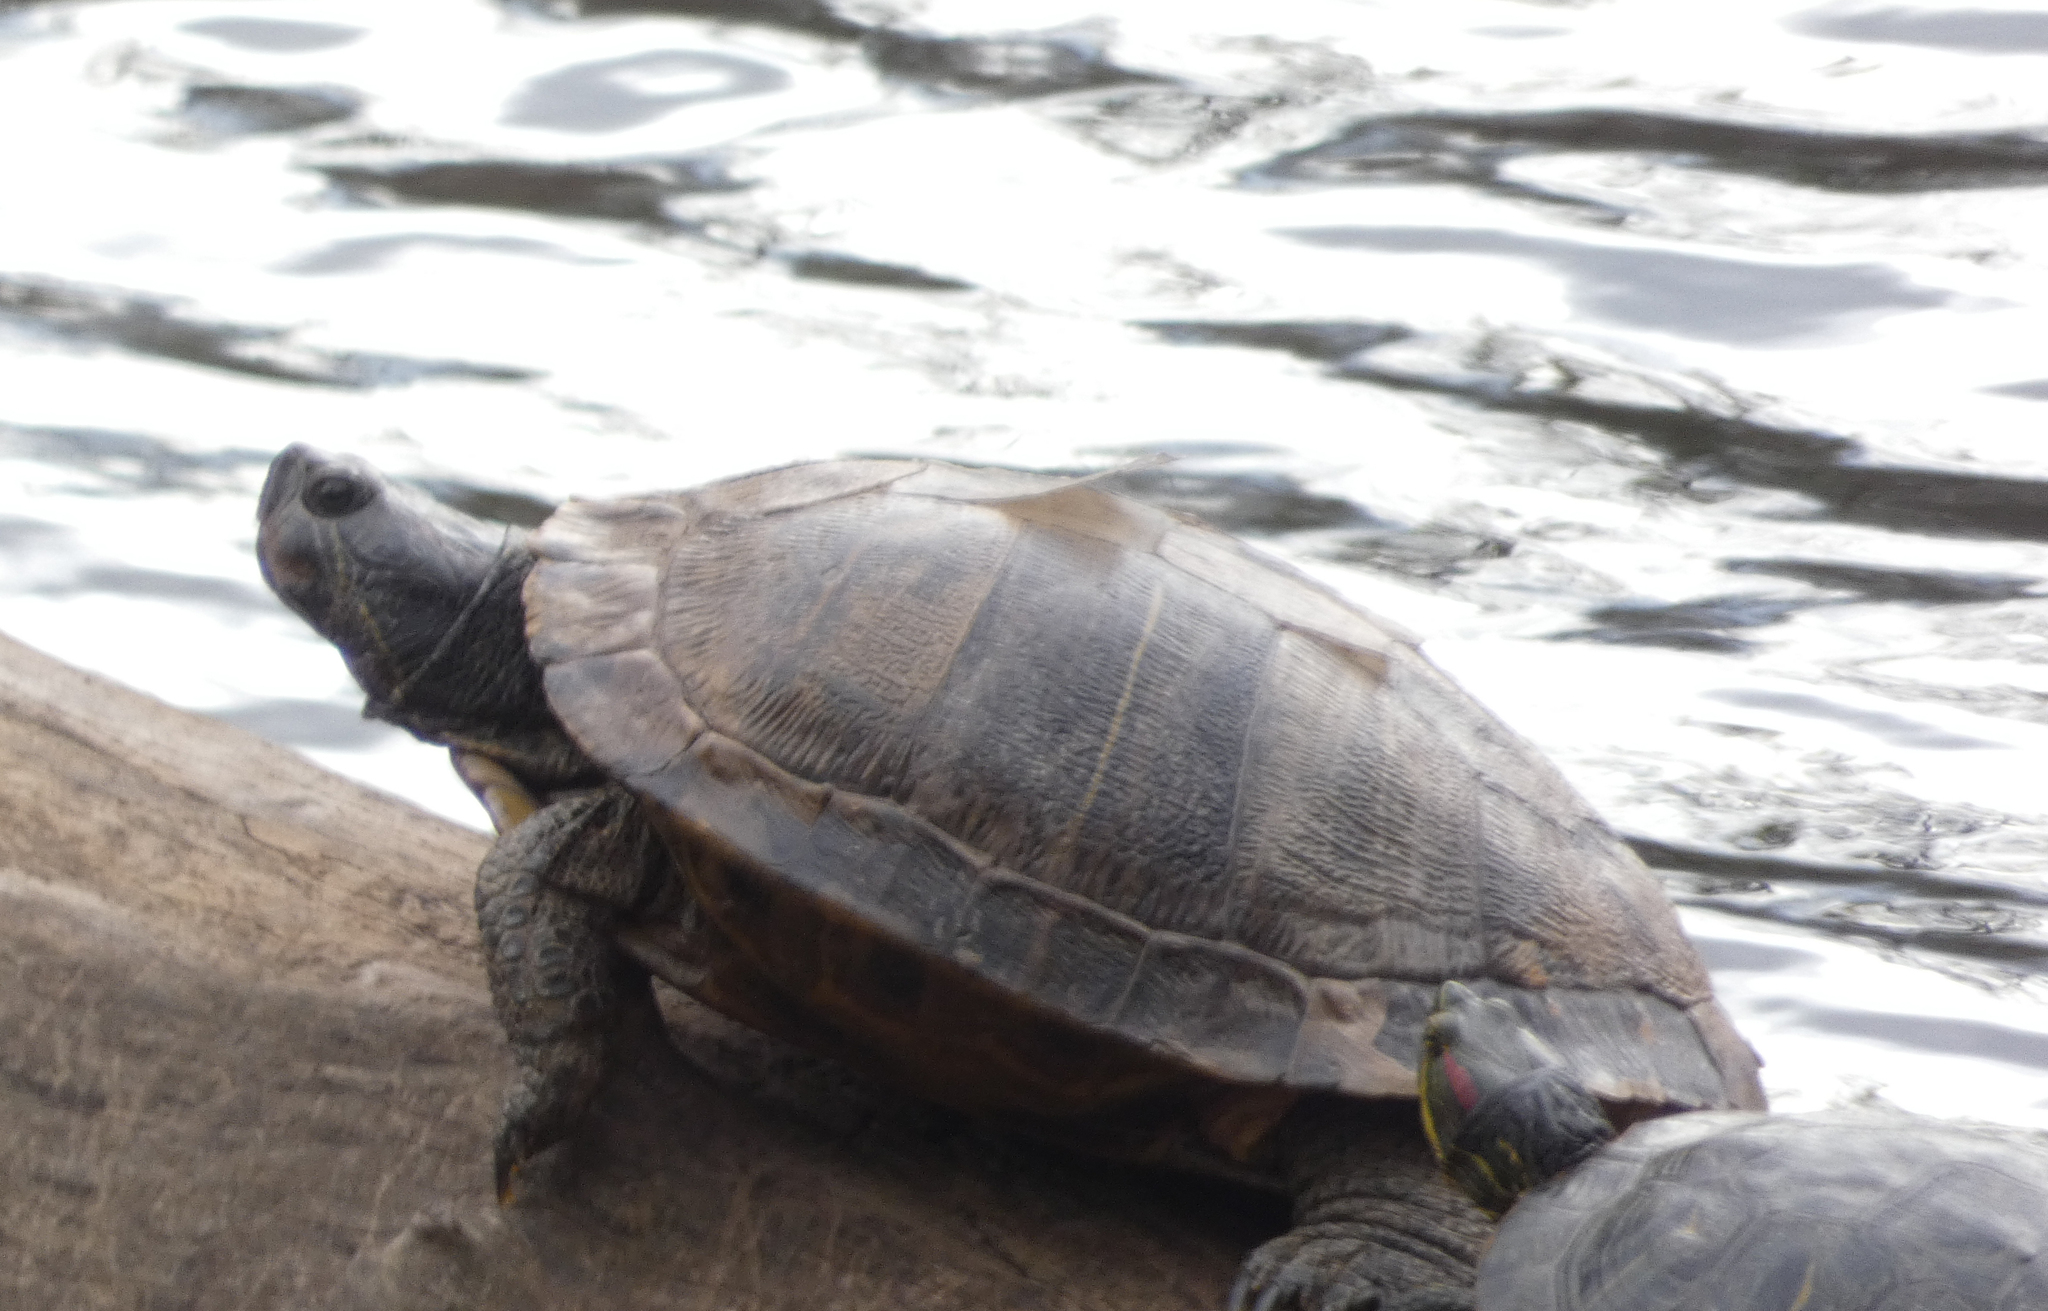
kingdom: Animalia
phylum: Chordata
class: Testudines
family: Emydidae
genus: Trachemys
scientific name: Trachemys scripta
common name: Slider
